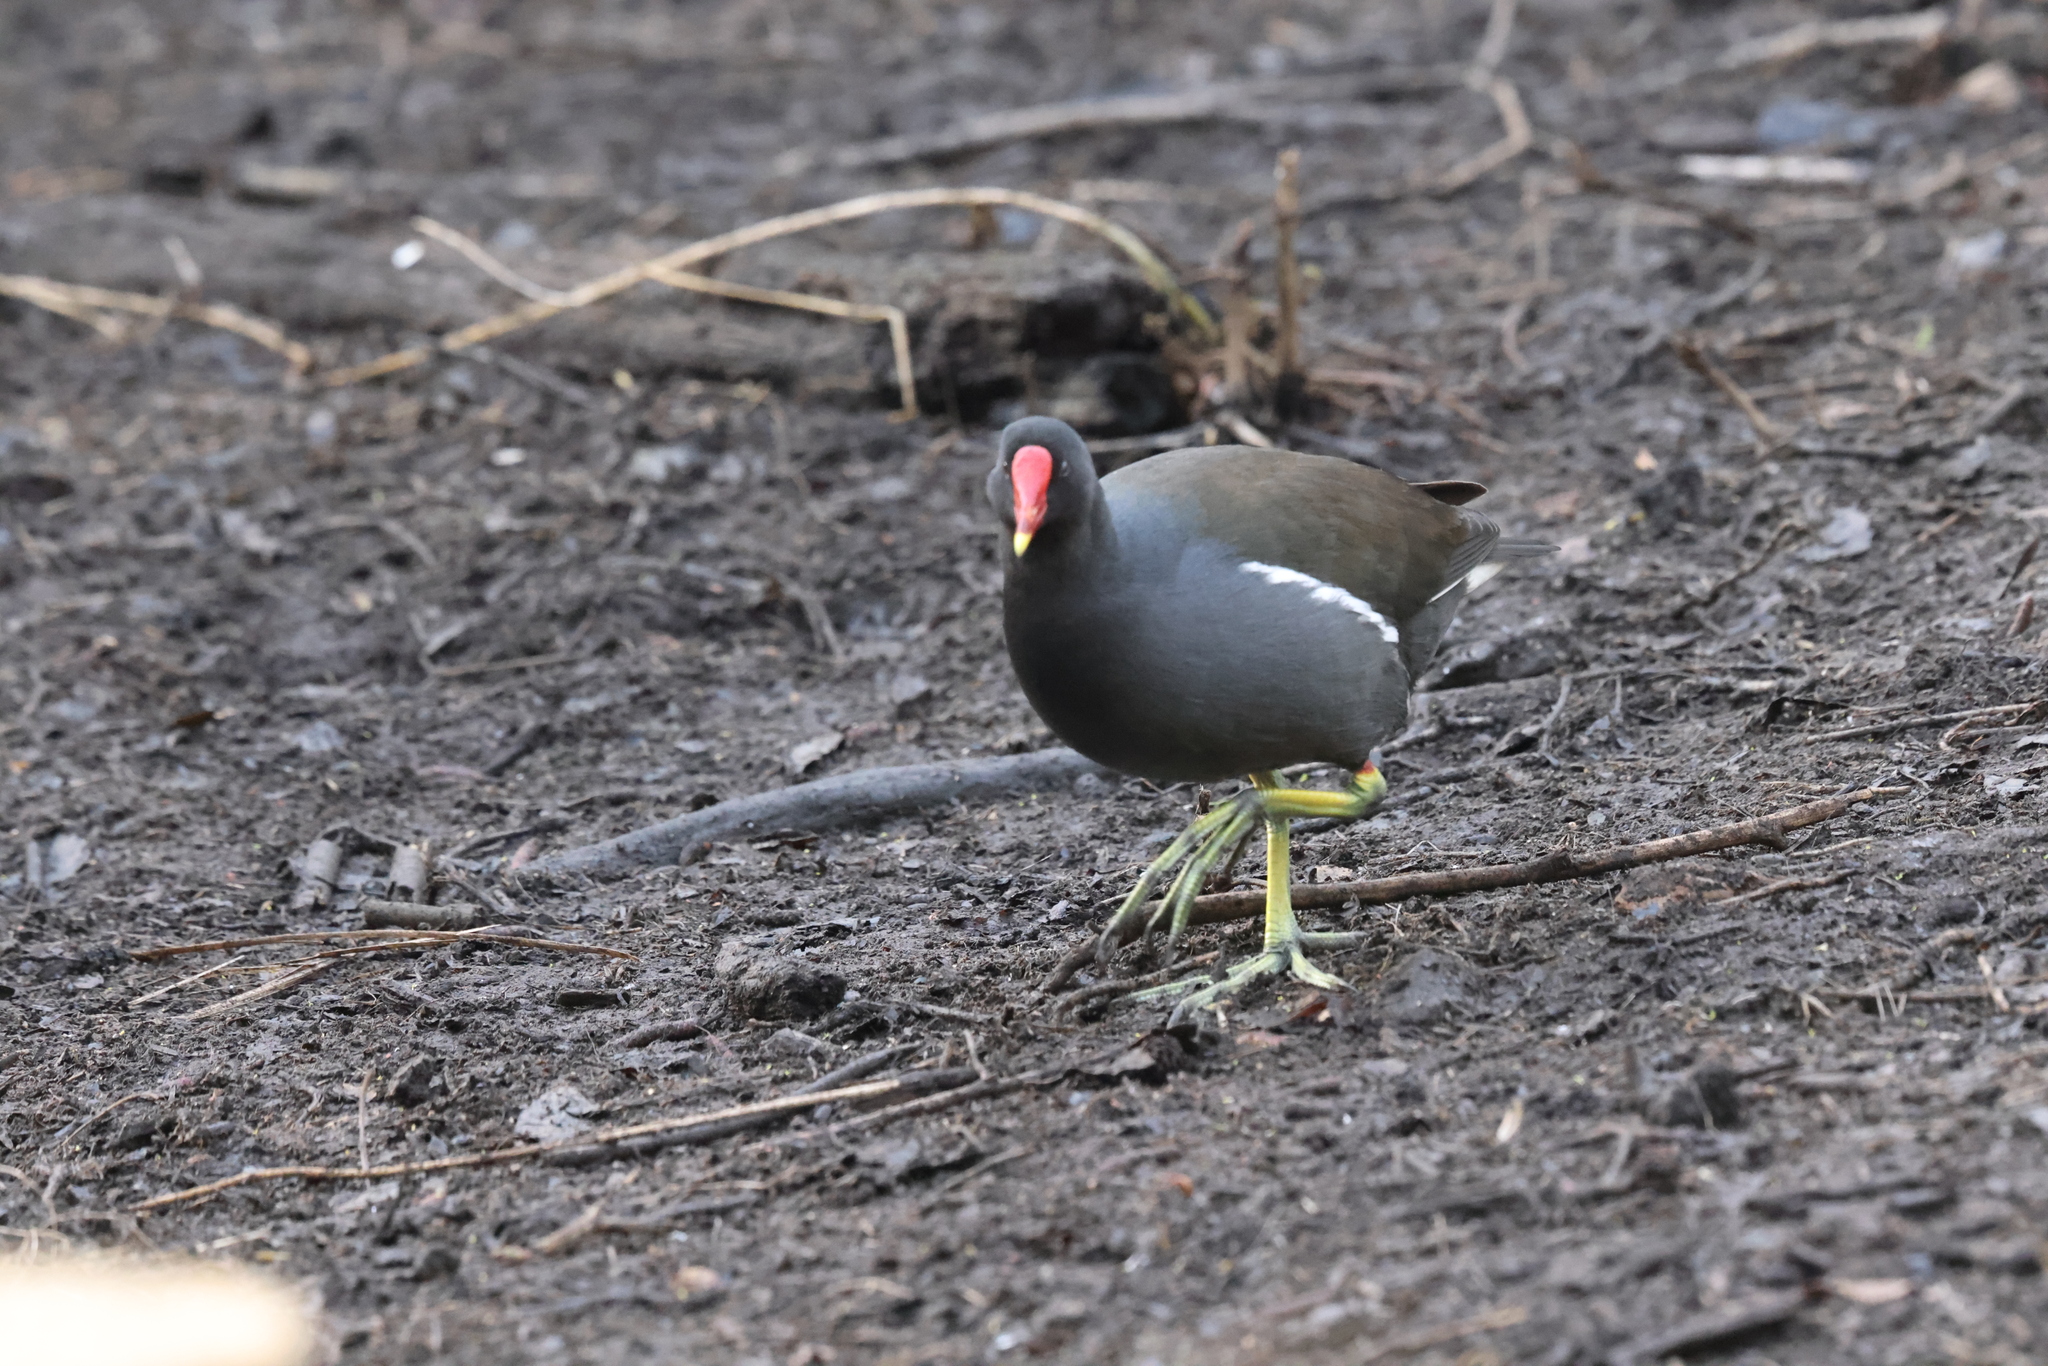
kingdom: Animalia
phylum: Chordata
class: Aves
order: Gruiformes
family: Rallidae
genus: Gallinula
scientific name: Gallinula chloropus
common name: Common moorhen
